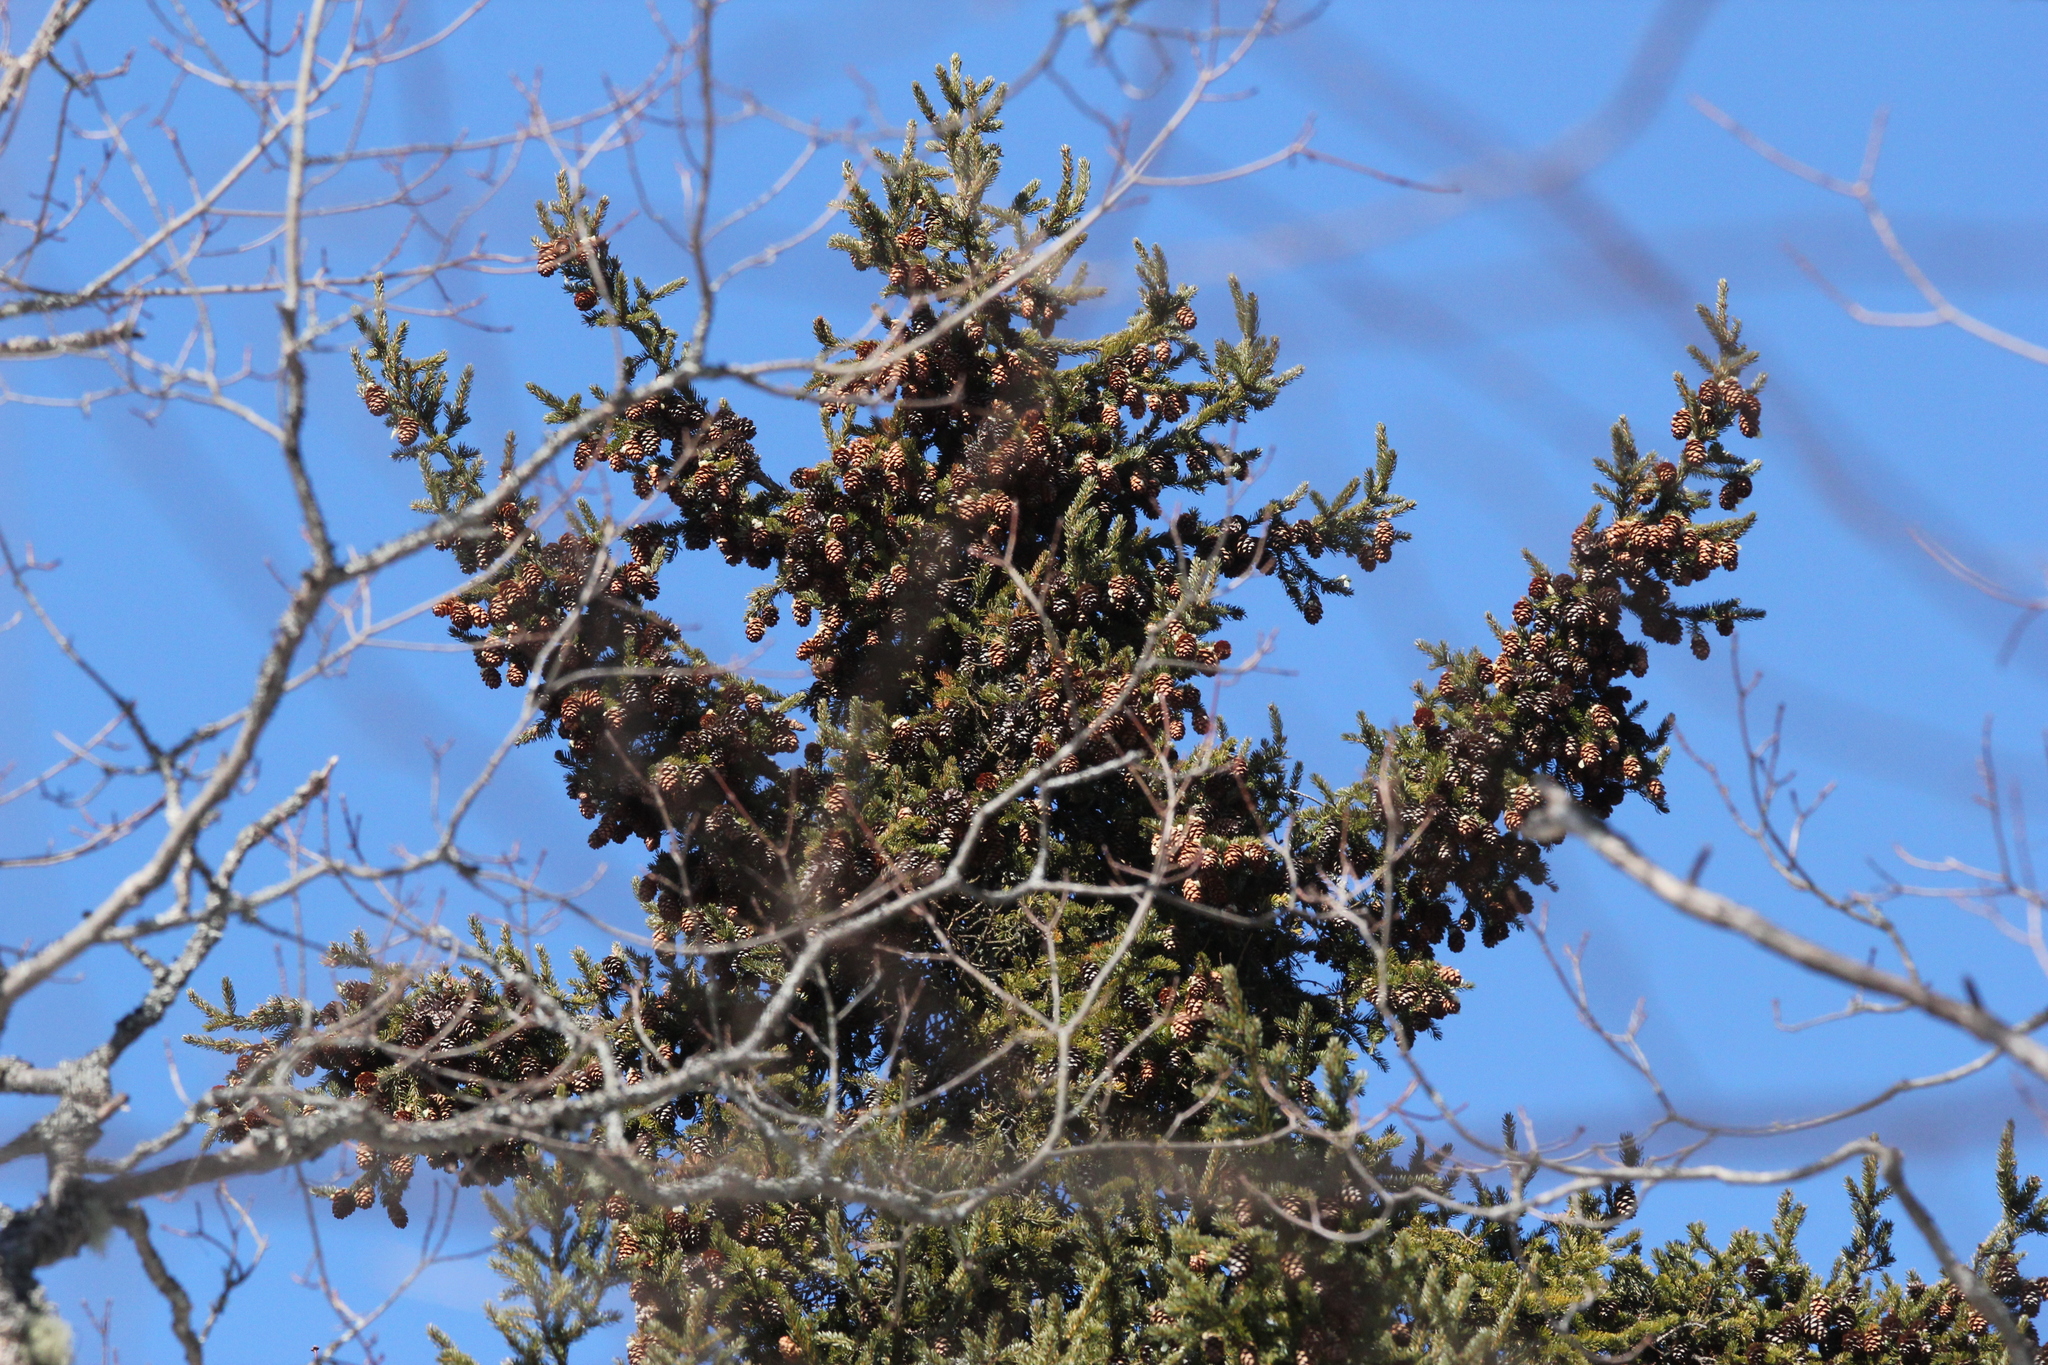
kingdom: Plantae
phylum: Tracheophyta
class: Pinopsida
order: Pinales
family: Pinaceae
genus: Picea
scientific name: Picea rubens
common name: Red spruce
